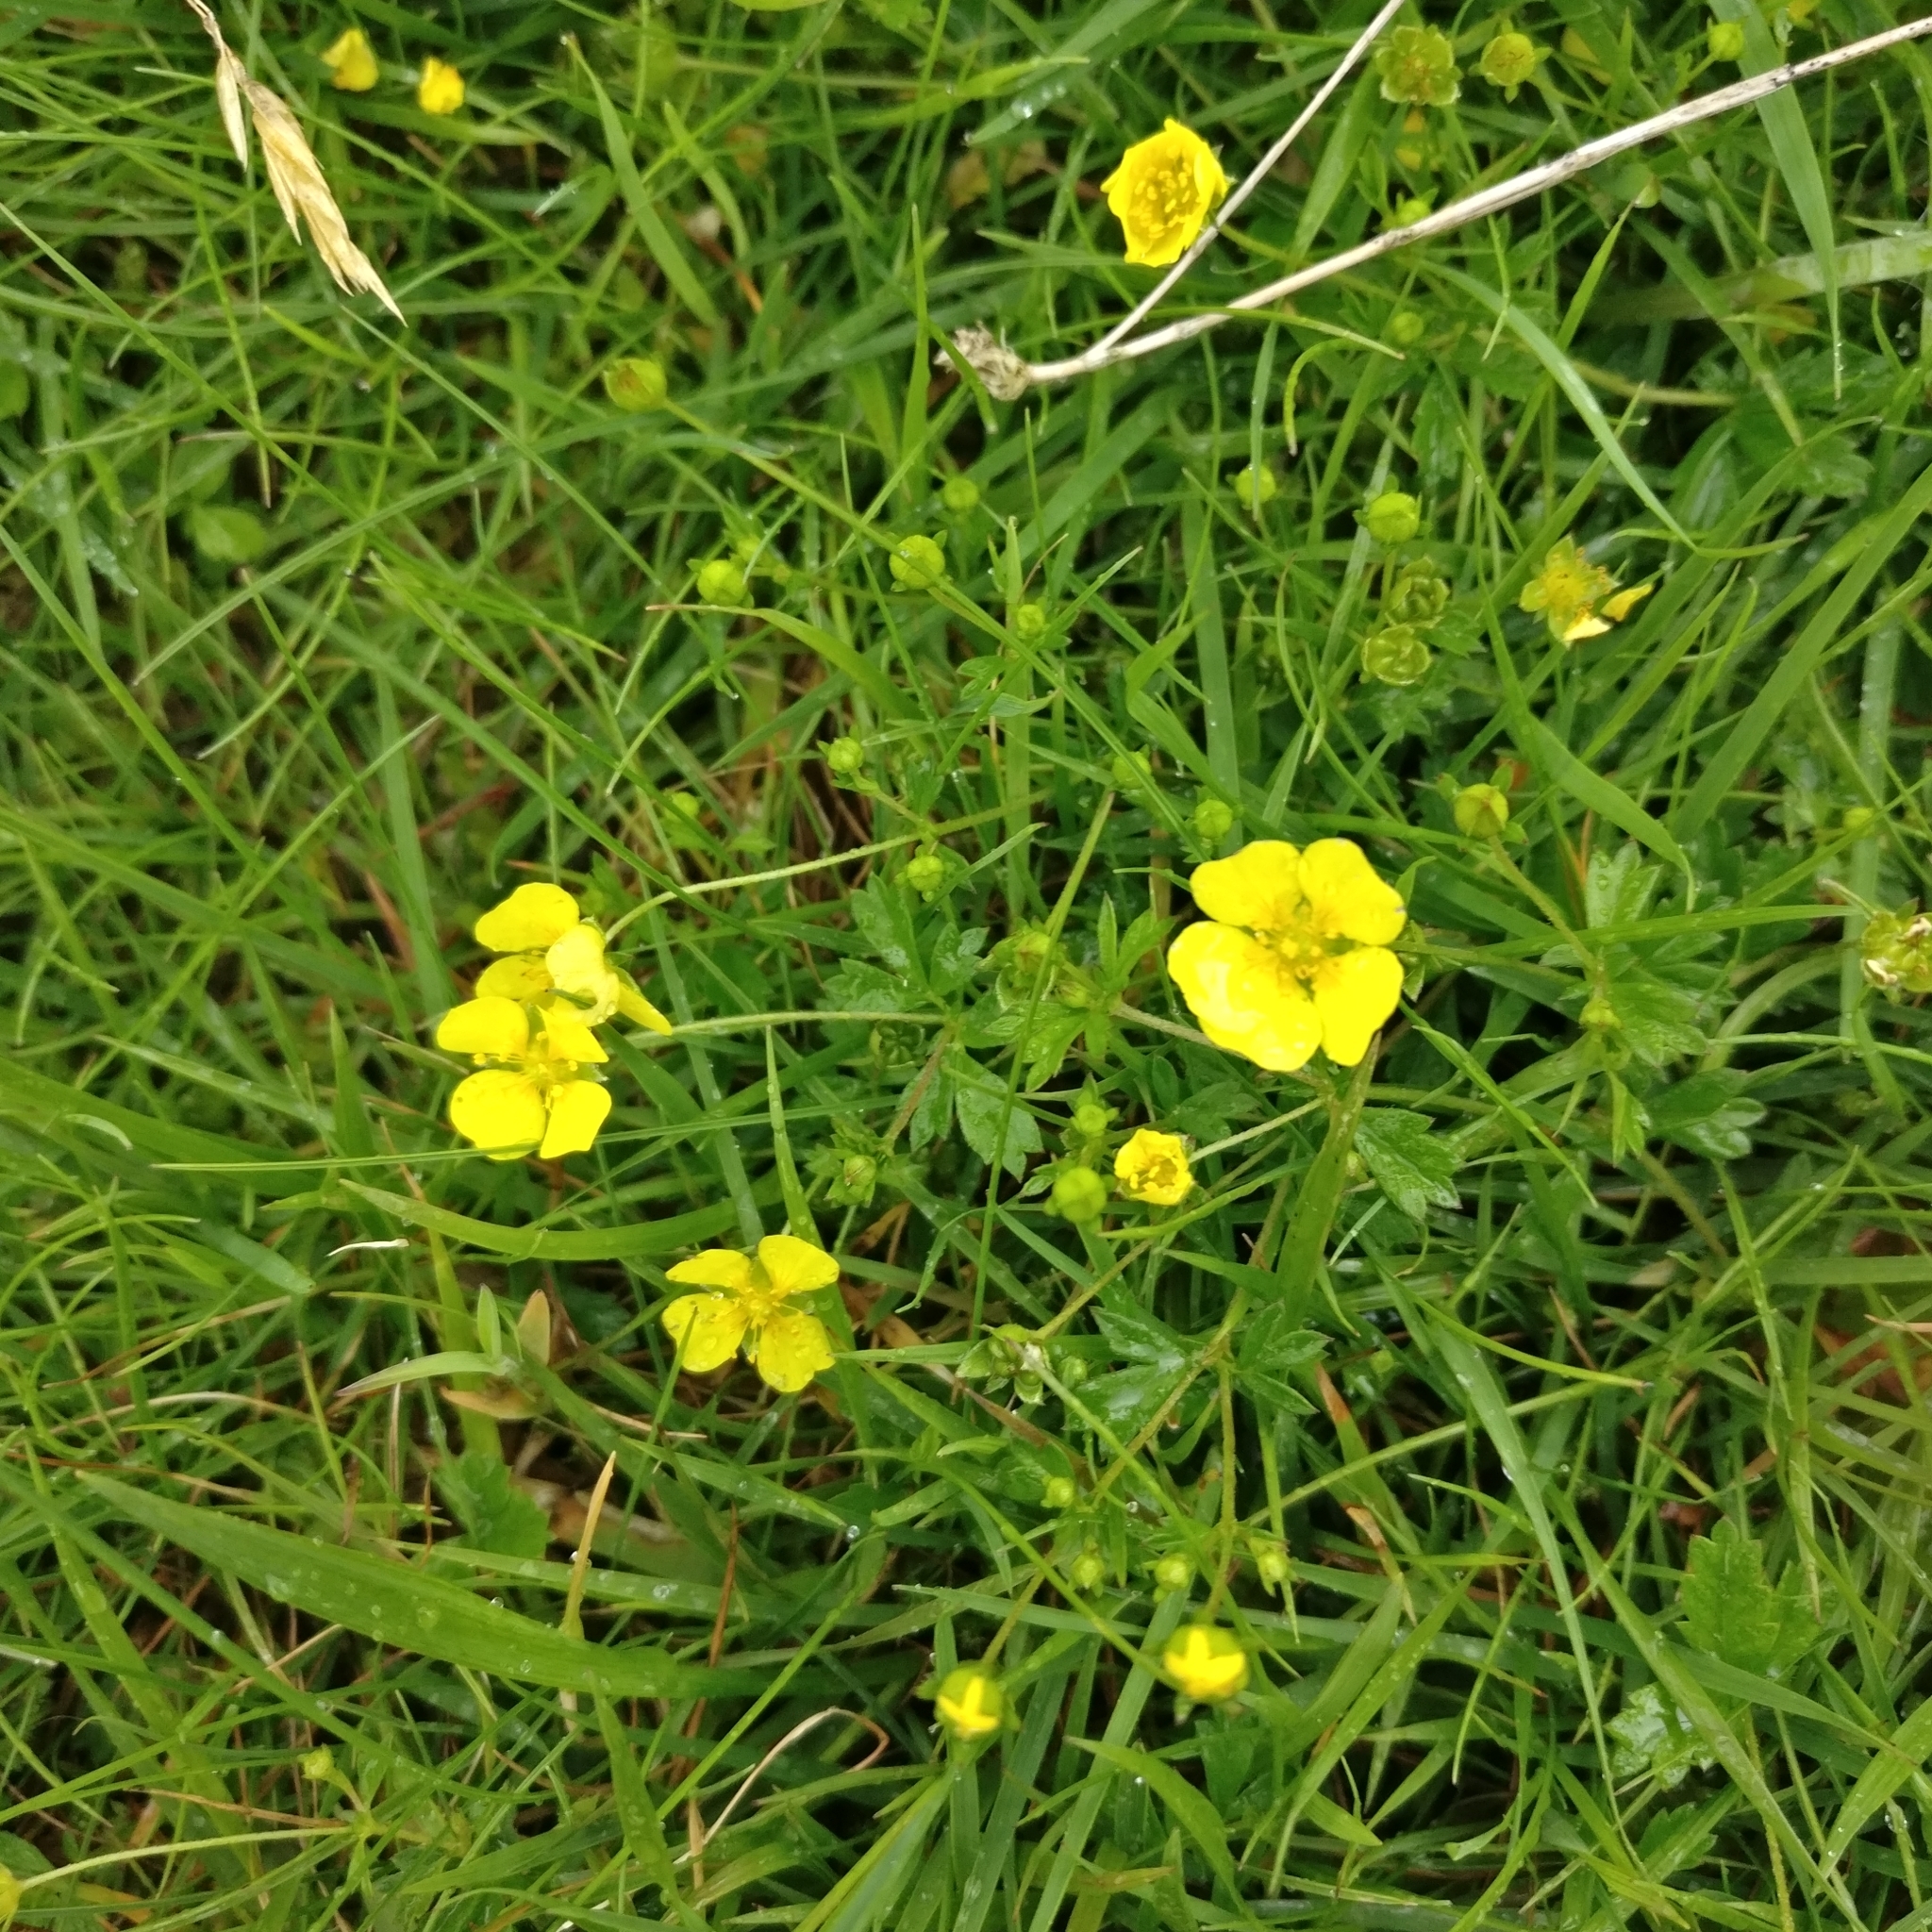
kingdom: Plantae
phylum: Tracheophyta
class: Magnoliopsida
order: Rosales
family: Rosaceae
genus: Potentilla
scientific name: Potentilla erecta
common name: Tormentil
